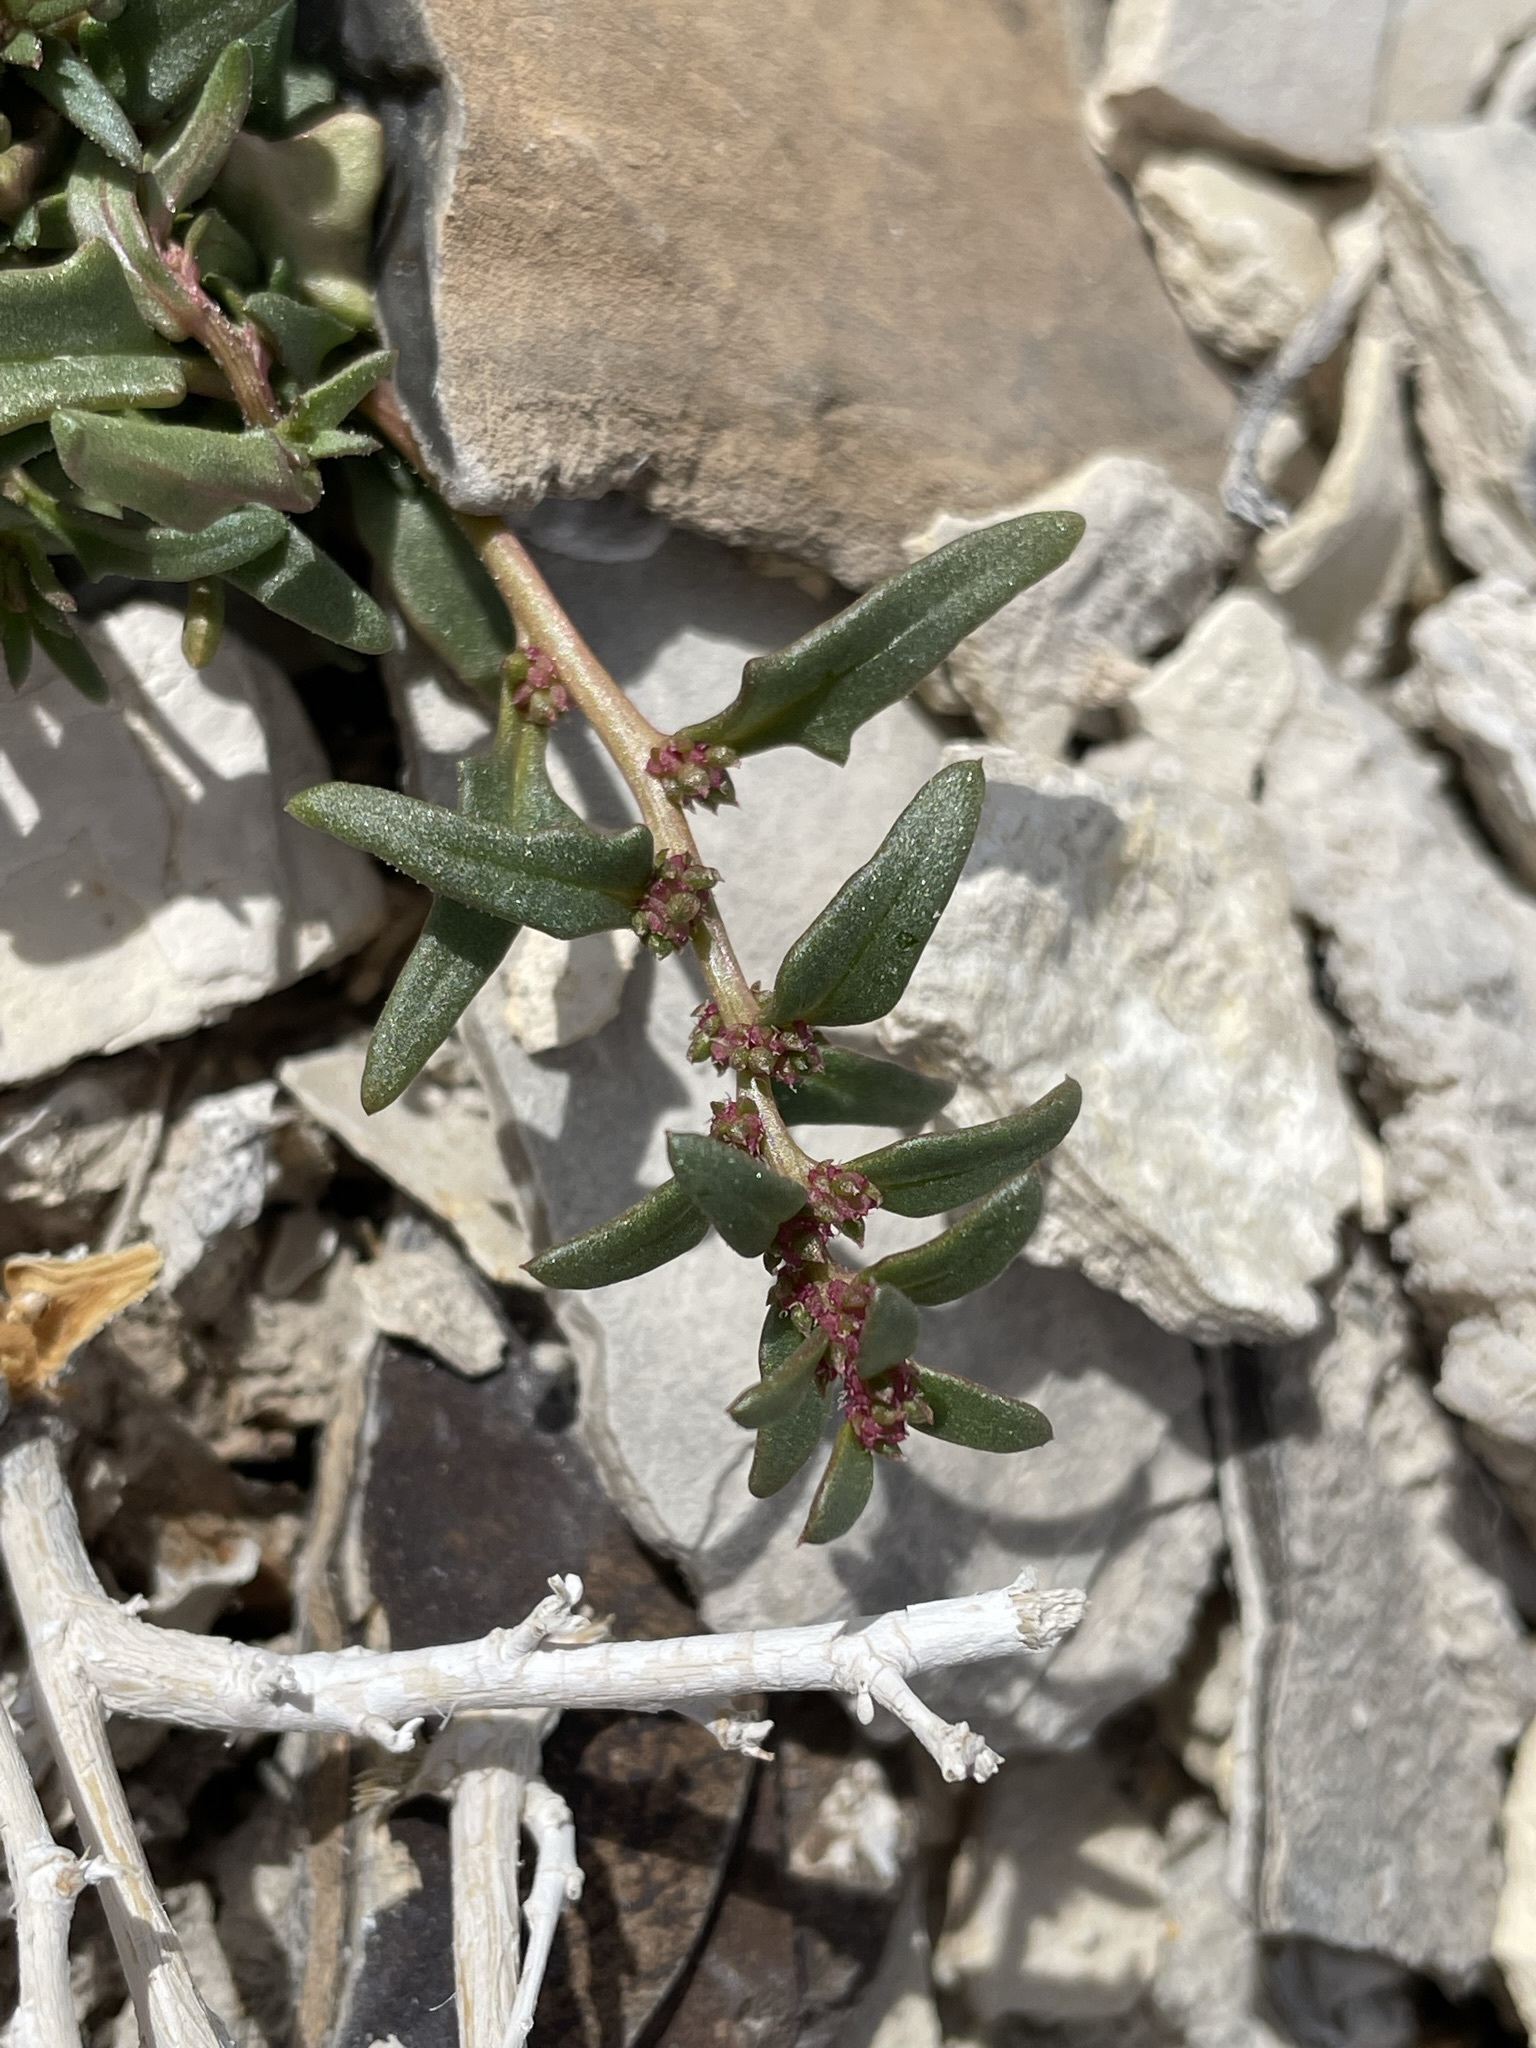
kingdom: Plantae
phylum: Tracheophyta
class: Magnoliopsida
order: Caryophyllales
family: Amaranthaceae
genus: Blitum
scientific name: Blitum nuttallianum
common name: Poverty-weed
